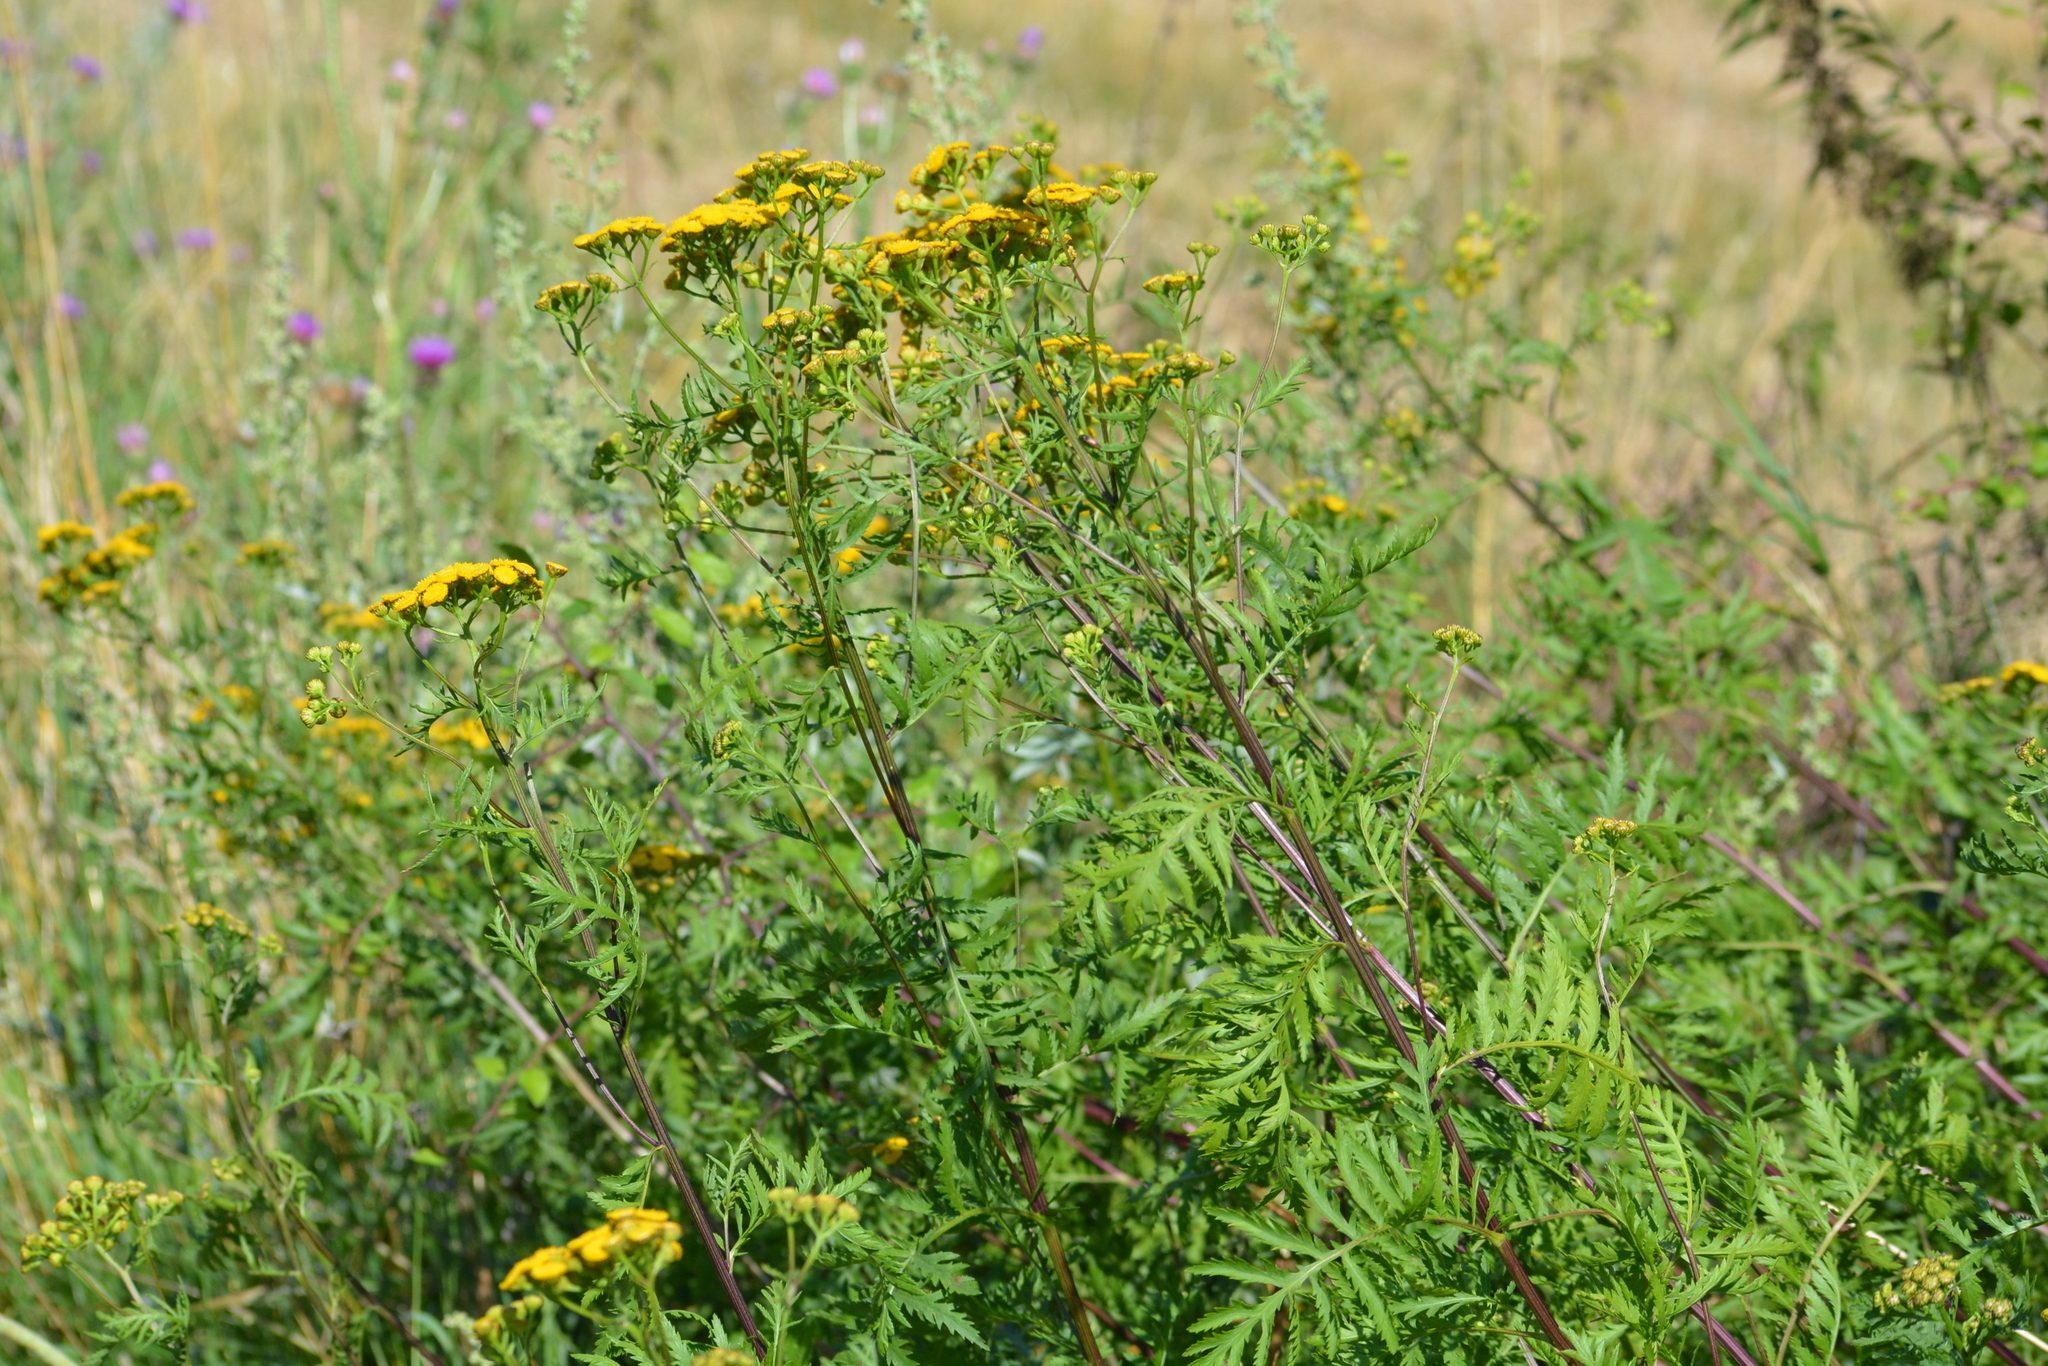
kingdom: Plantae
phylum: Tracheophyta
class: Magnoliopsida
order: Asterales
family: Asteraceae
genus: Tanacetum
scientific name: Tanacetum vulgare
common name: Common tansy
